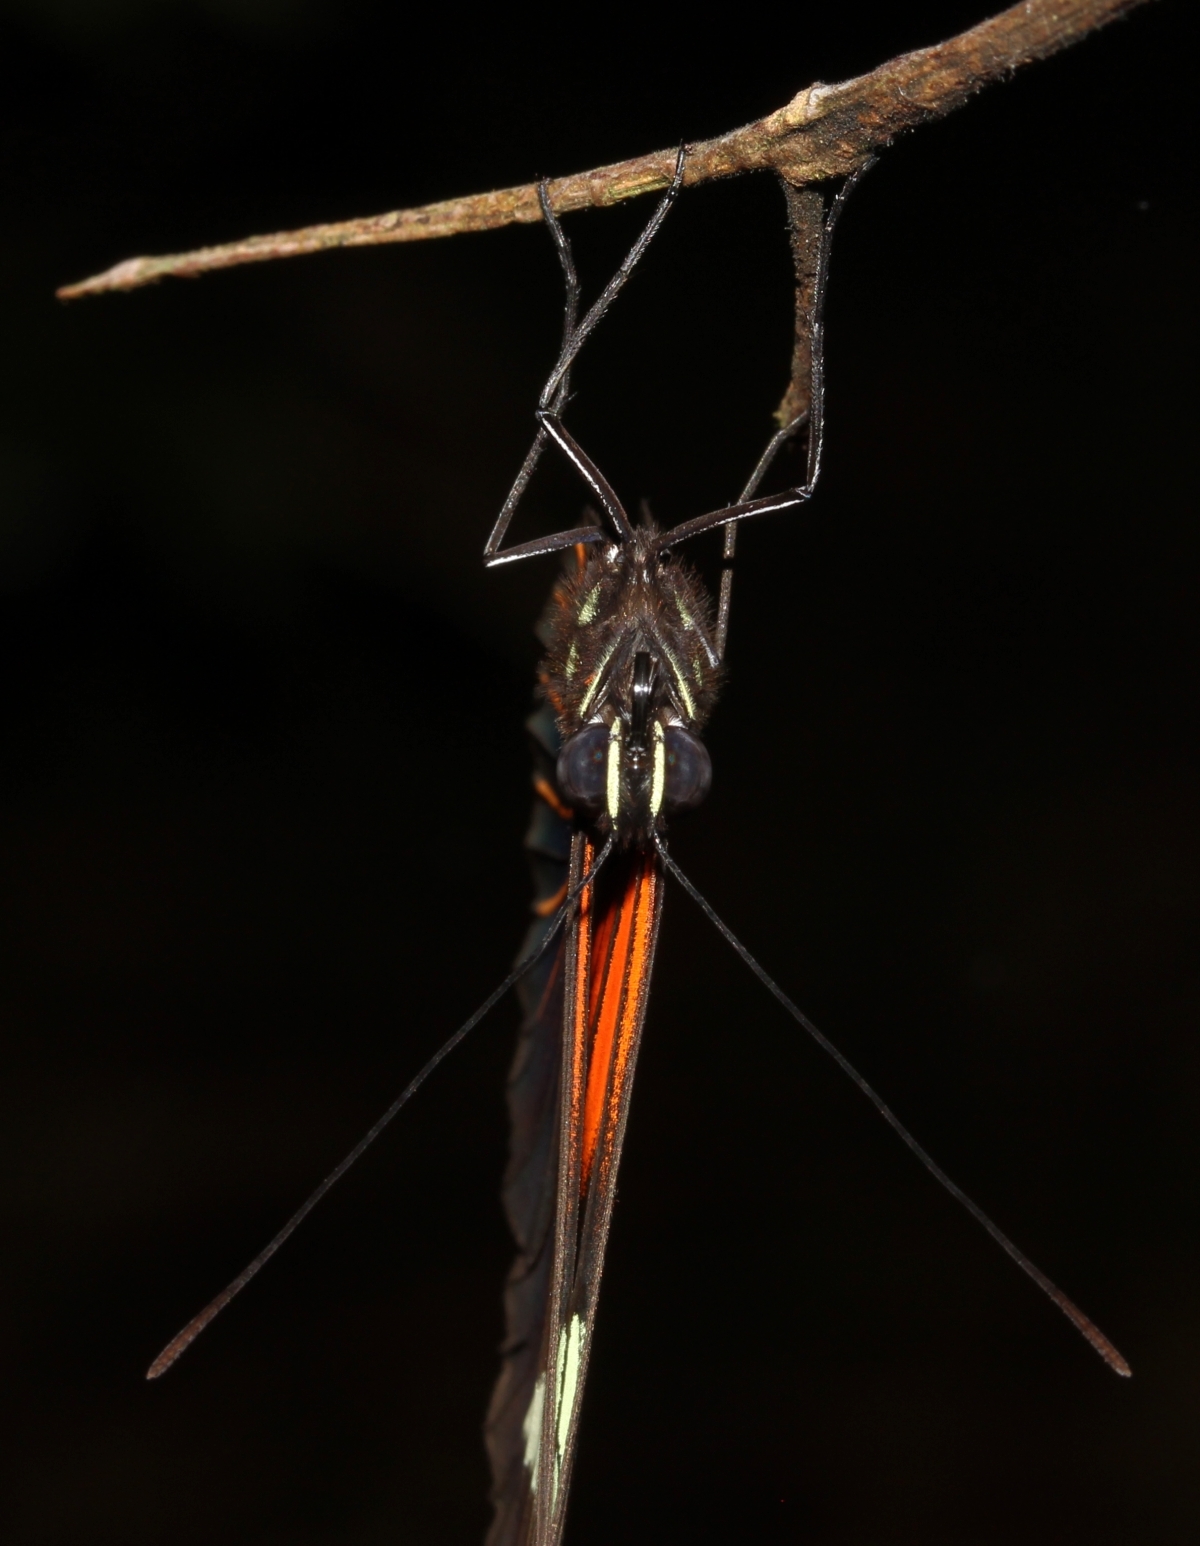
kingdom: Animalia
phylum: Arthropoda
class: Insecta
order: Lepidoptera
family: Nymphalidae
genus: Heliconius
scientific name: Heliconius erato
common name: Common patch longwing
